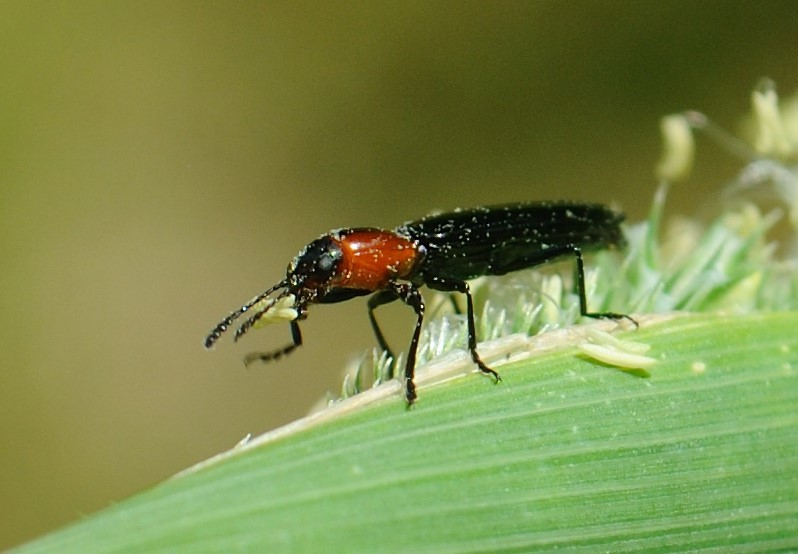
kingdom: Animalia
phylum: Arthropoda
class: Insecta
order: Coleoptera
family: Erotylidae
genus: Acropteroxys
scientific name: Acropteroxys gracilis
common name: Slender lizard beetle
